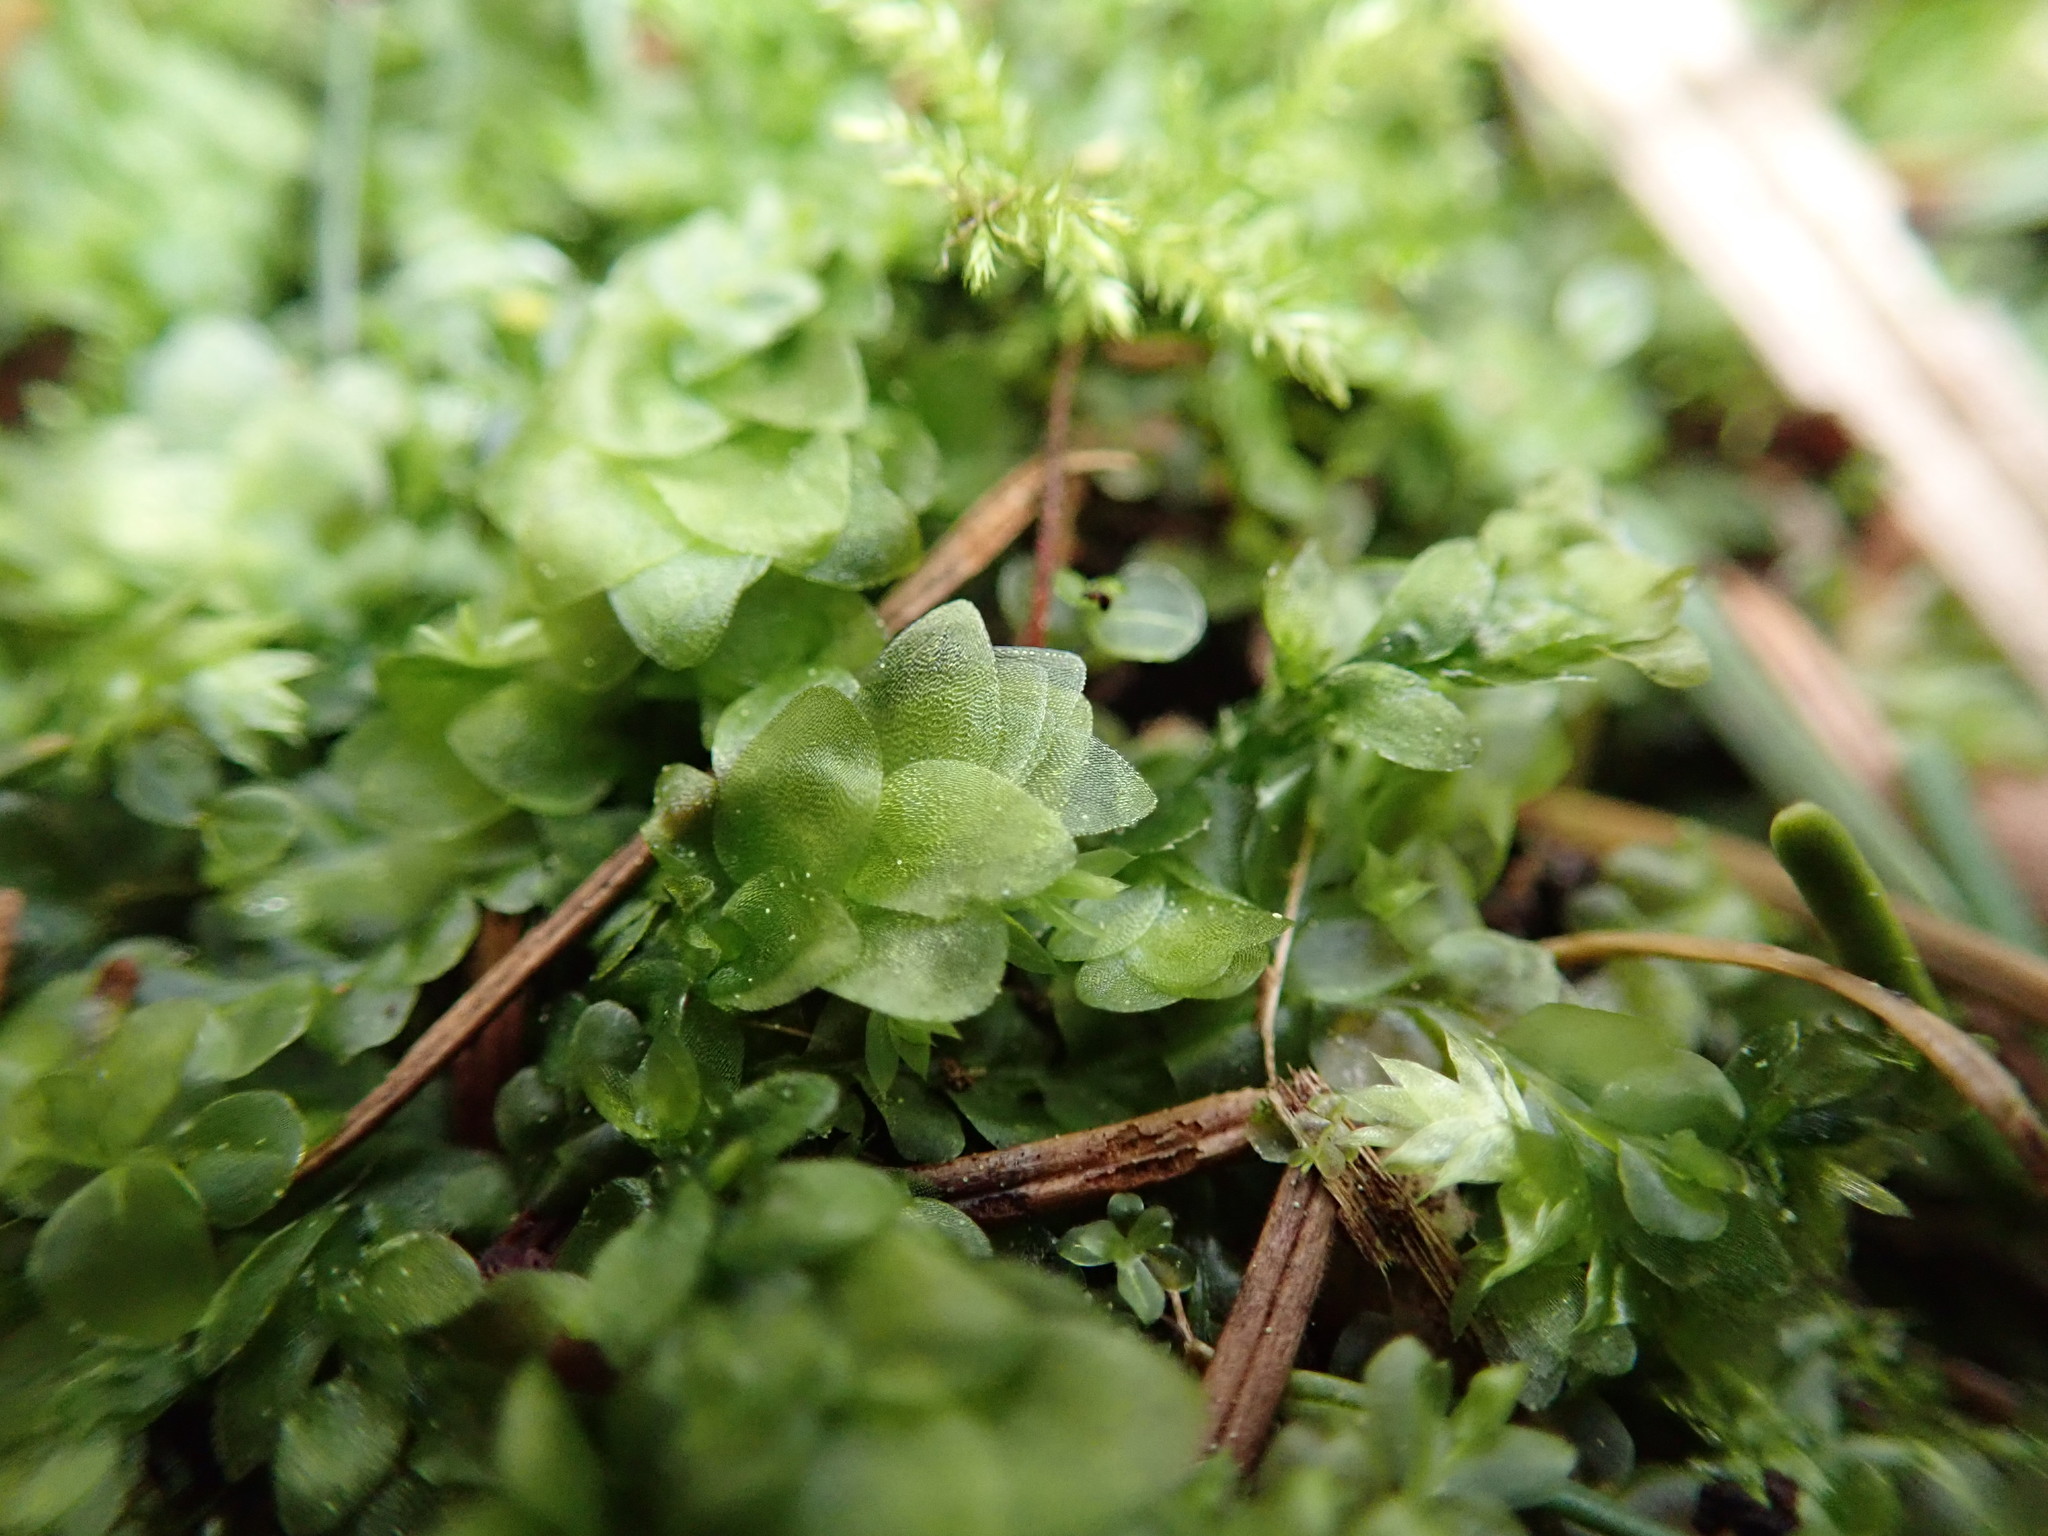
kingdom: Plantae
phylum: Bryophyta
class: Bryopsida
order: Hookeriales
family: Hookeriaceae
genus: Hookeria
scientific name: Hookeria lucens
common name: Shining hookeria
